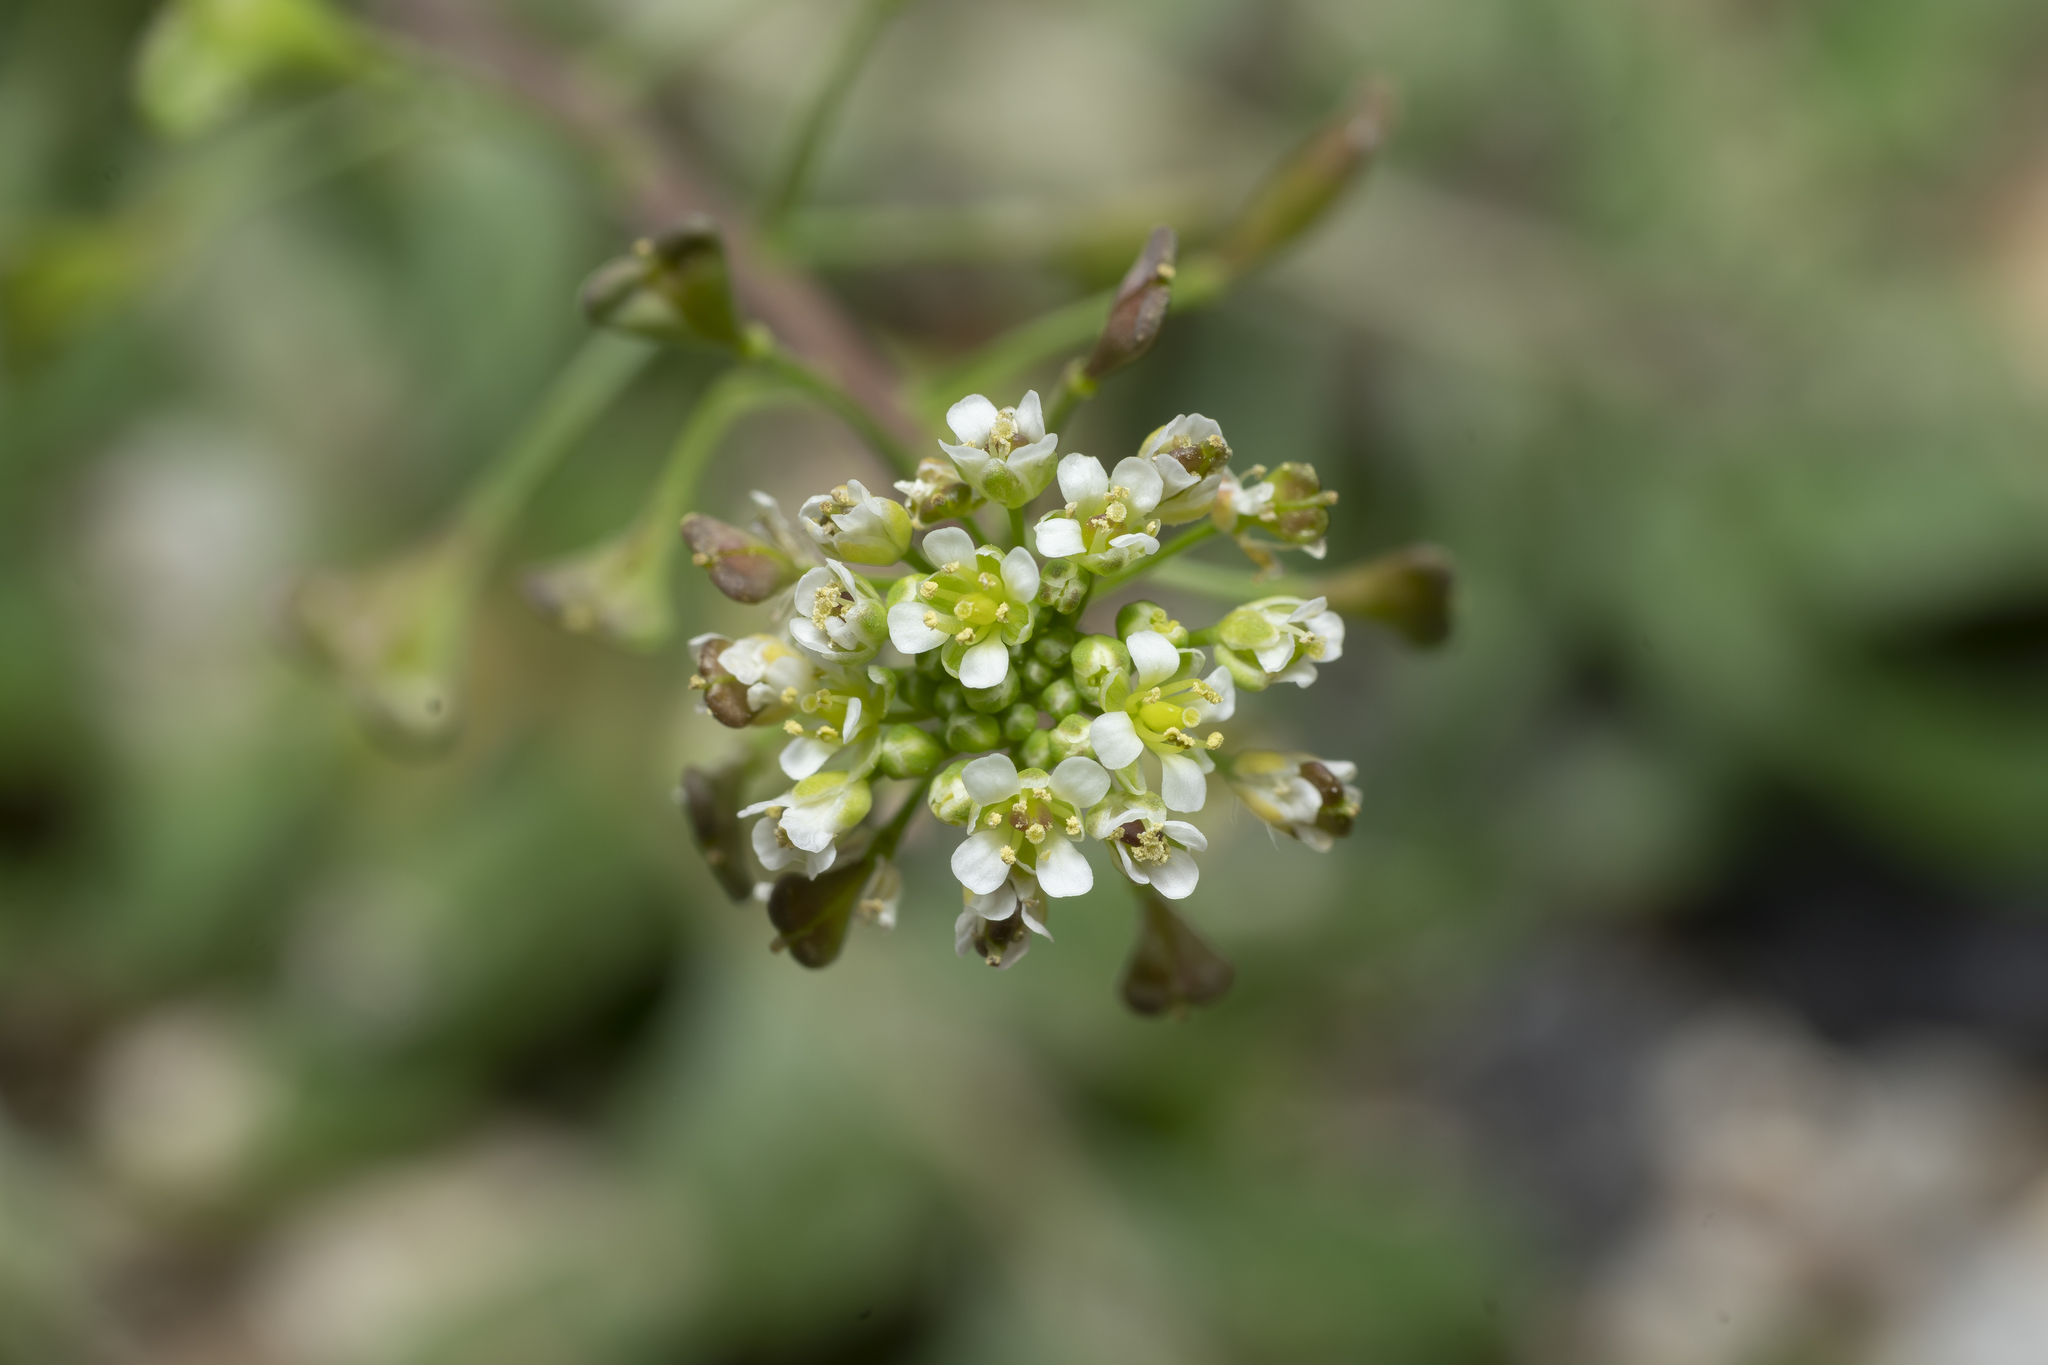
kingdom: Plantae
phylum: Tracheophyta
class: Magnoliopsida
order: Brassicales
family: Brassicaceae
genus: Capsella
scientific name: Capsella bursa-pastoris
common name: Shepherd's purse
